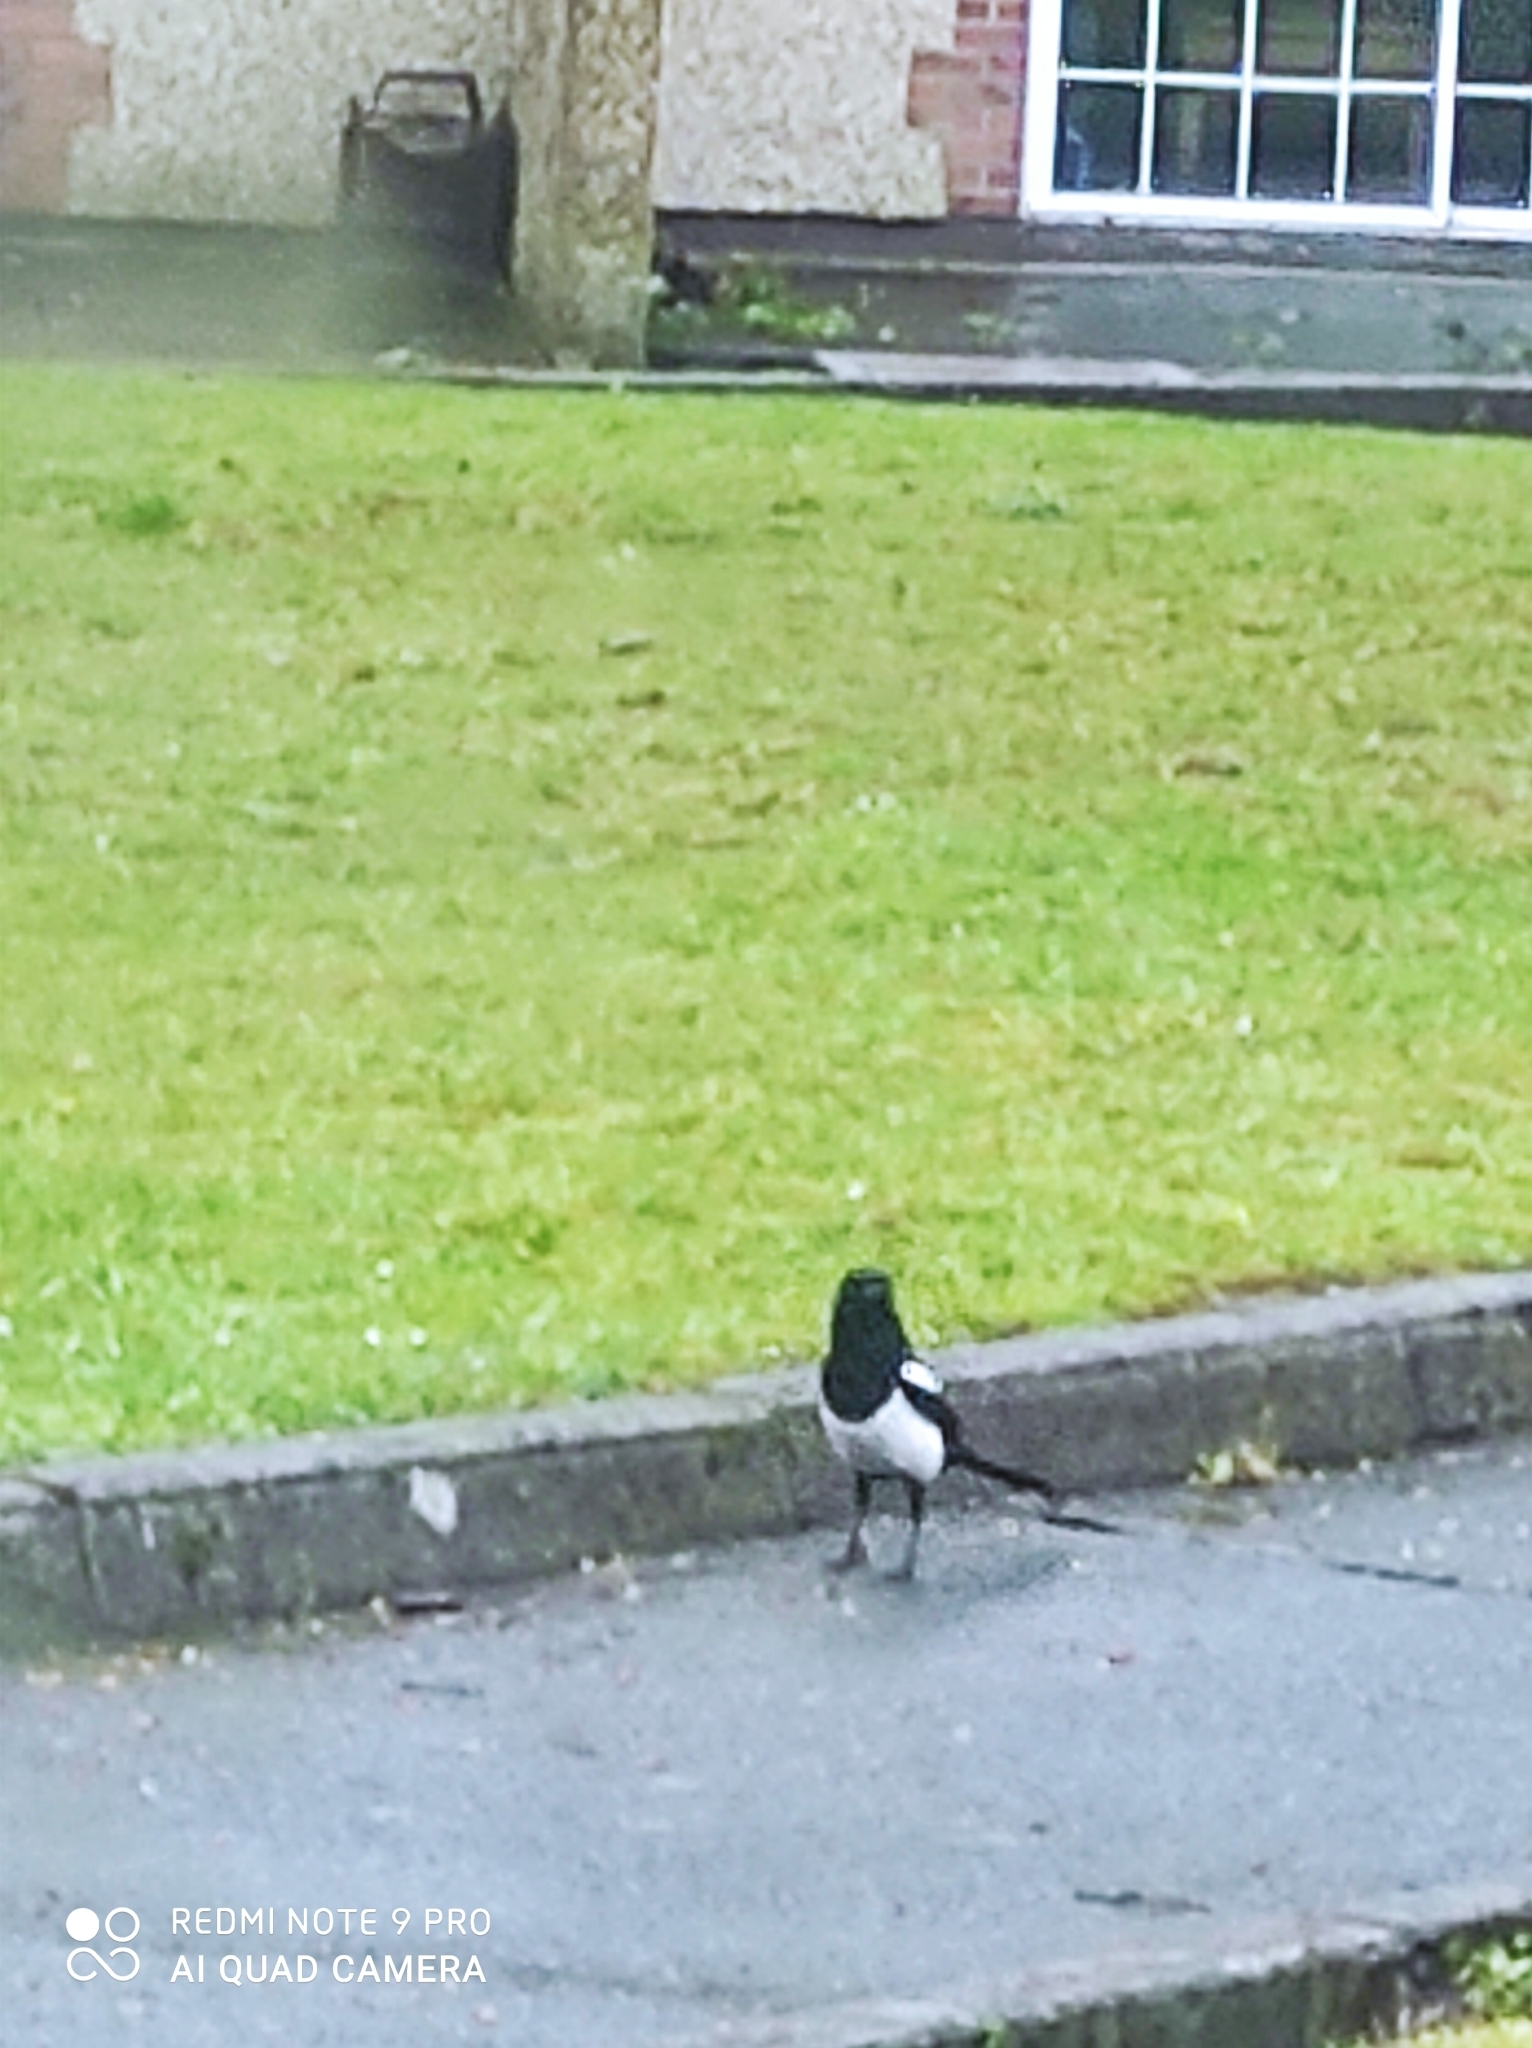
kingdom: Animalia
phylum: Chordata
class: Aves
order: Passeriformes
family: Corvidae
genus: Pica
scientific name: Pica pica
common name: Eurasian magpie
